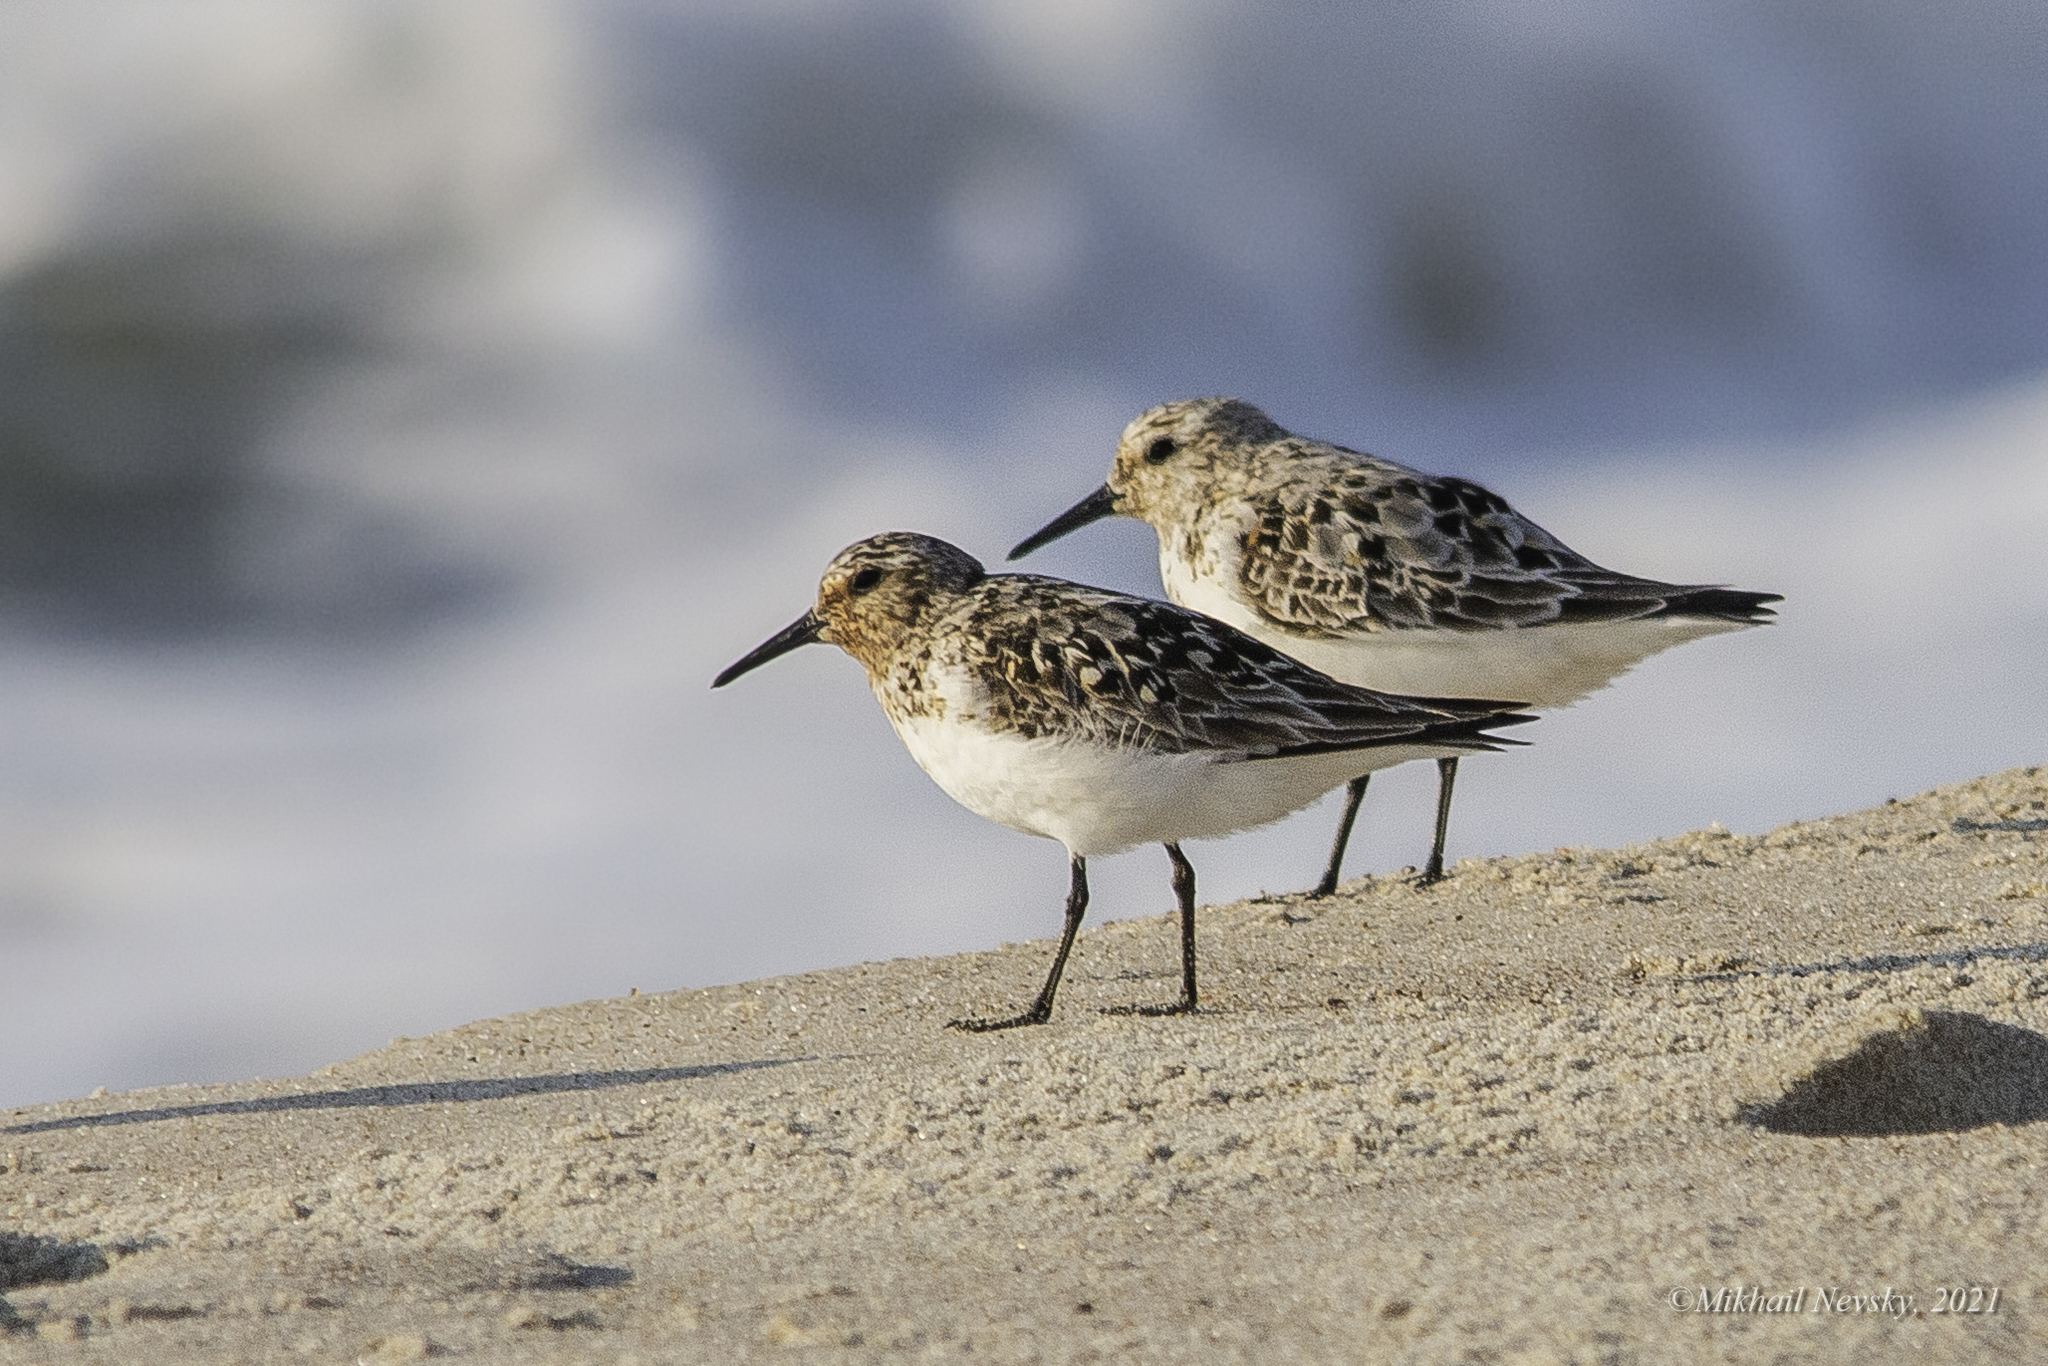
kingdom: Animalia
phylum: Chordata
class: Aves
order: Charadriiformes
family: Scolopacidae
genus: Calidris
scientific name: Calidris alba
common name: Sanderling
